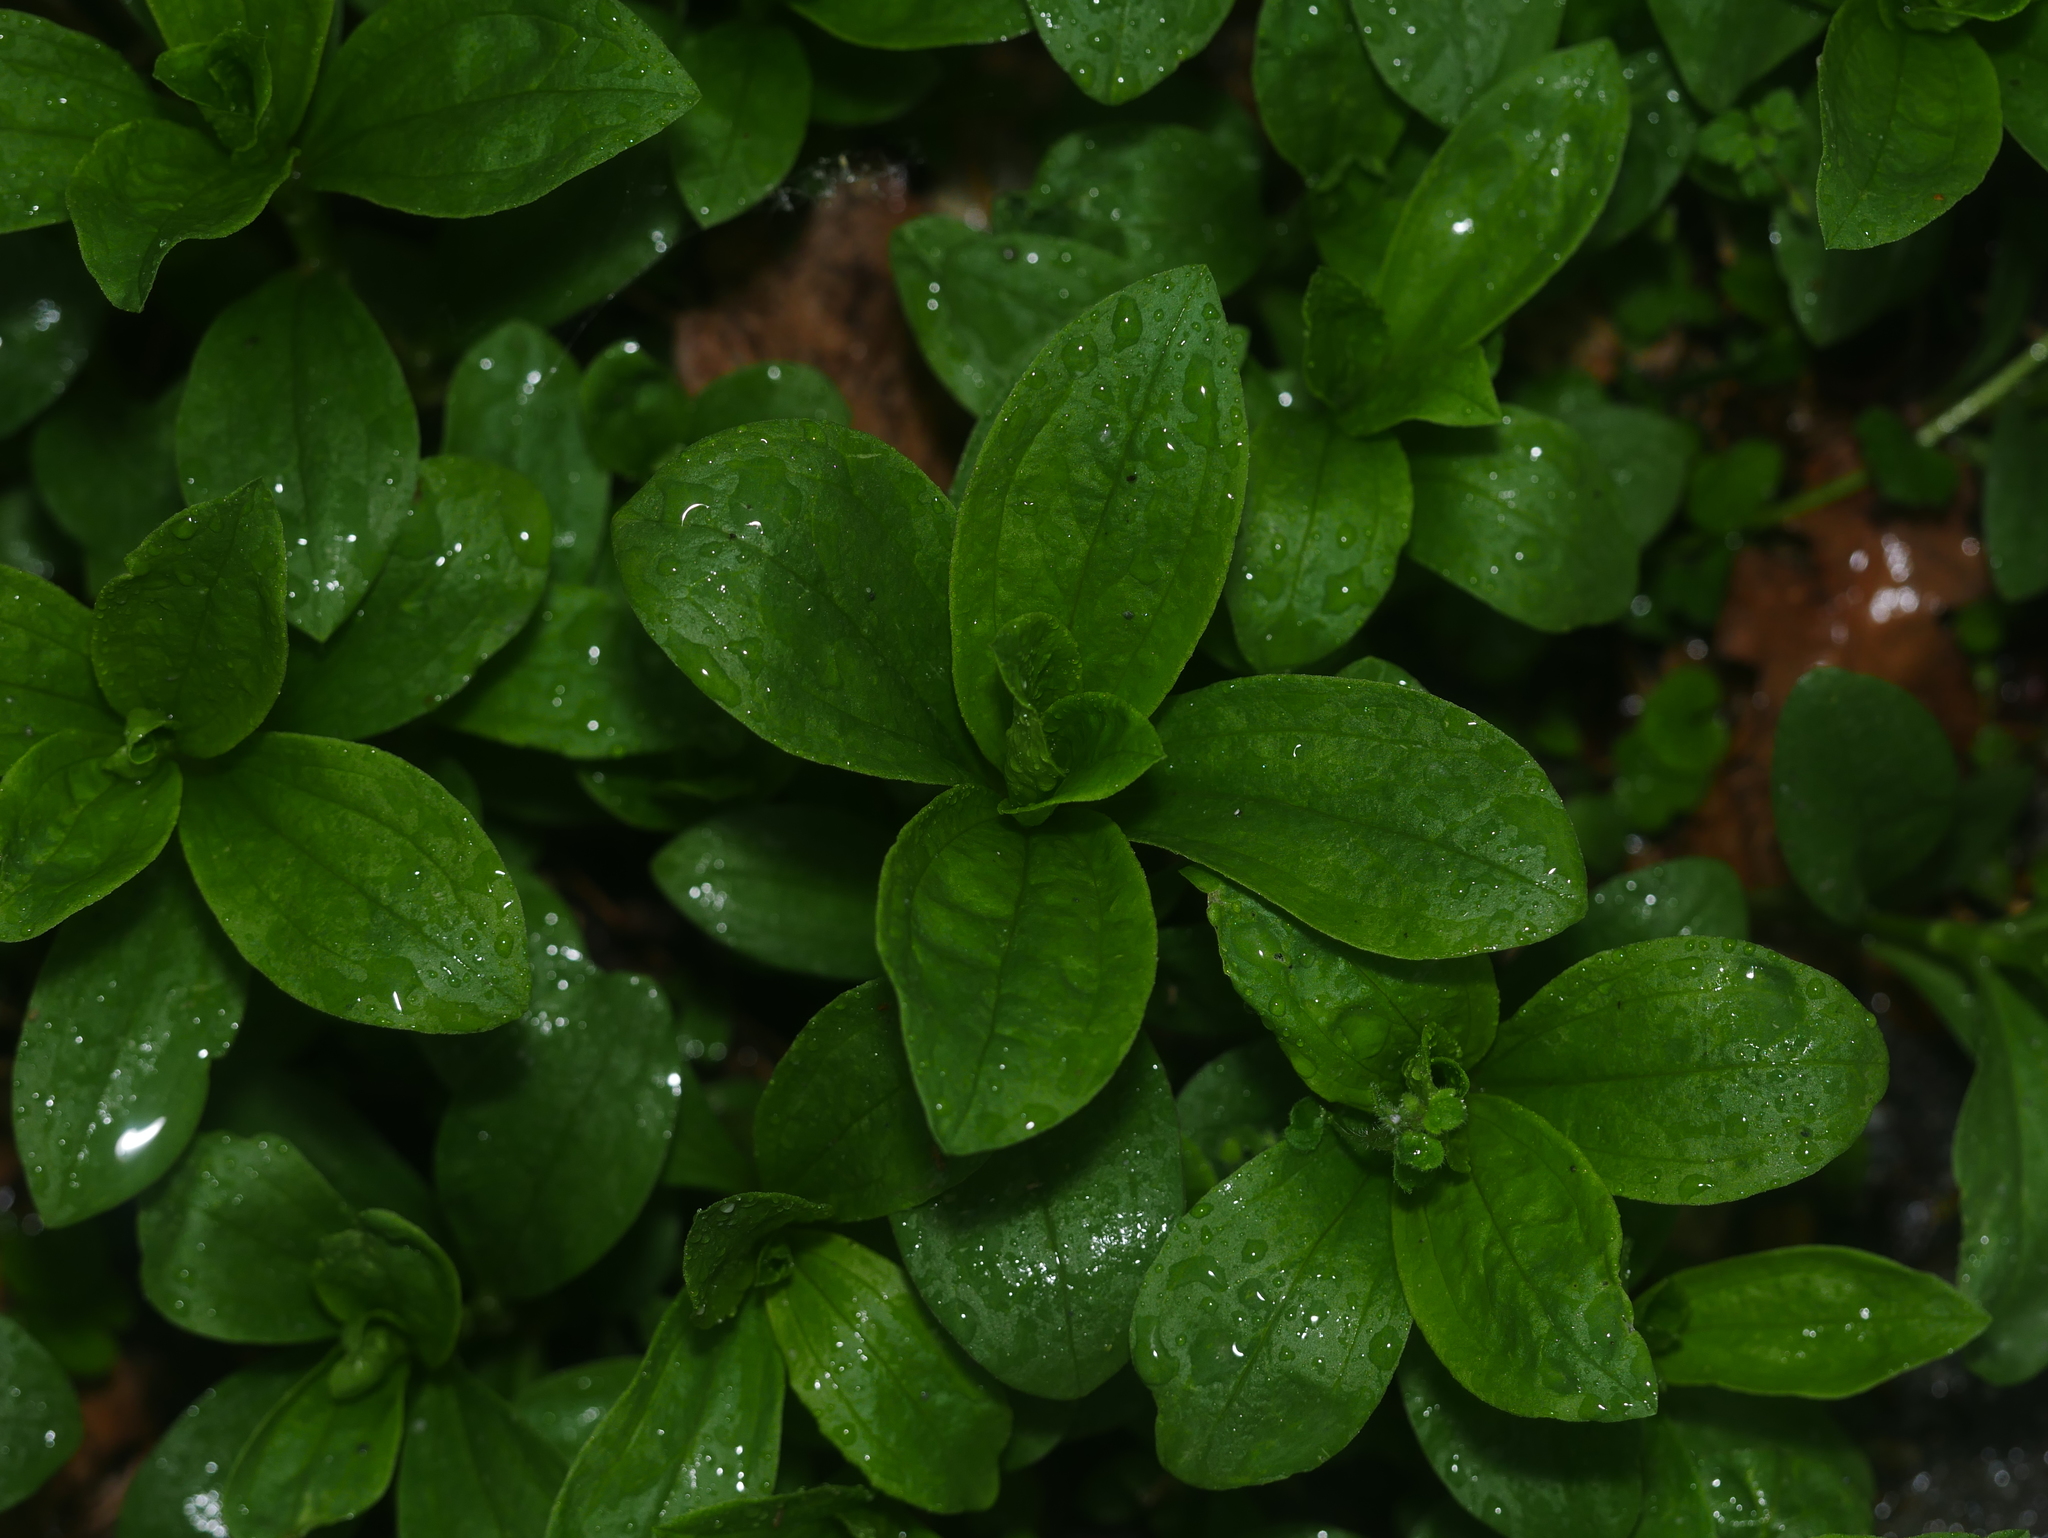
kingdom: Plantae
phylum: Tracheophyta
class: Magnoliopsida
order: Caryophyllales
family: Caryophyllaceae
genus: Saponaria
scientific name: Saponaria officinalis
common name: Soapwort
